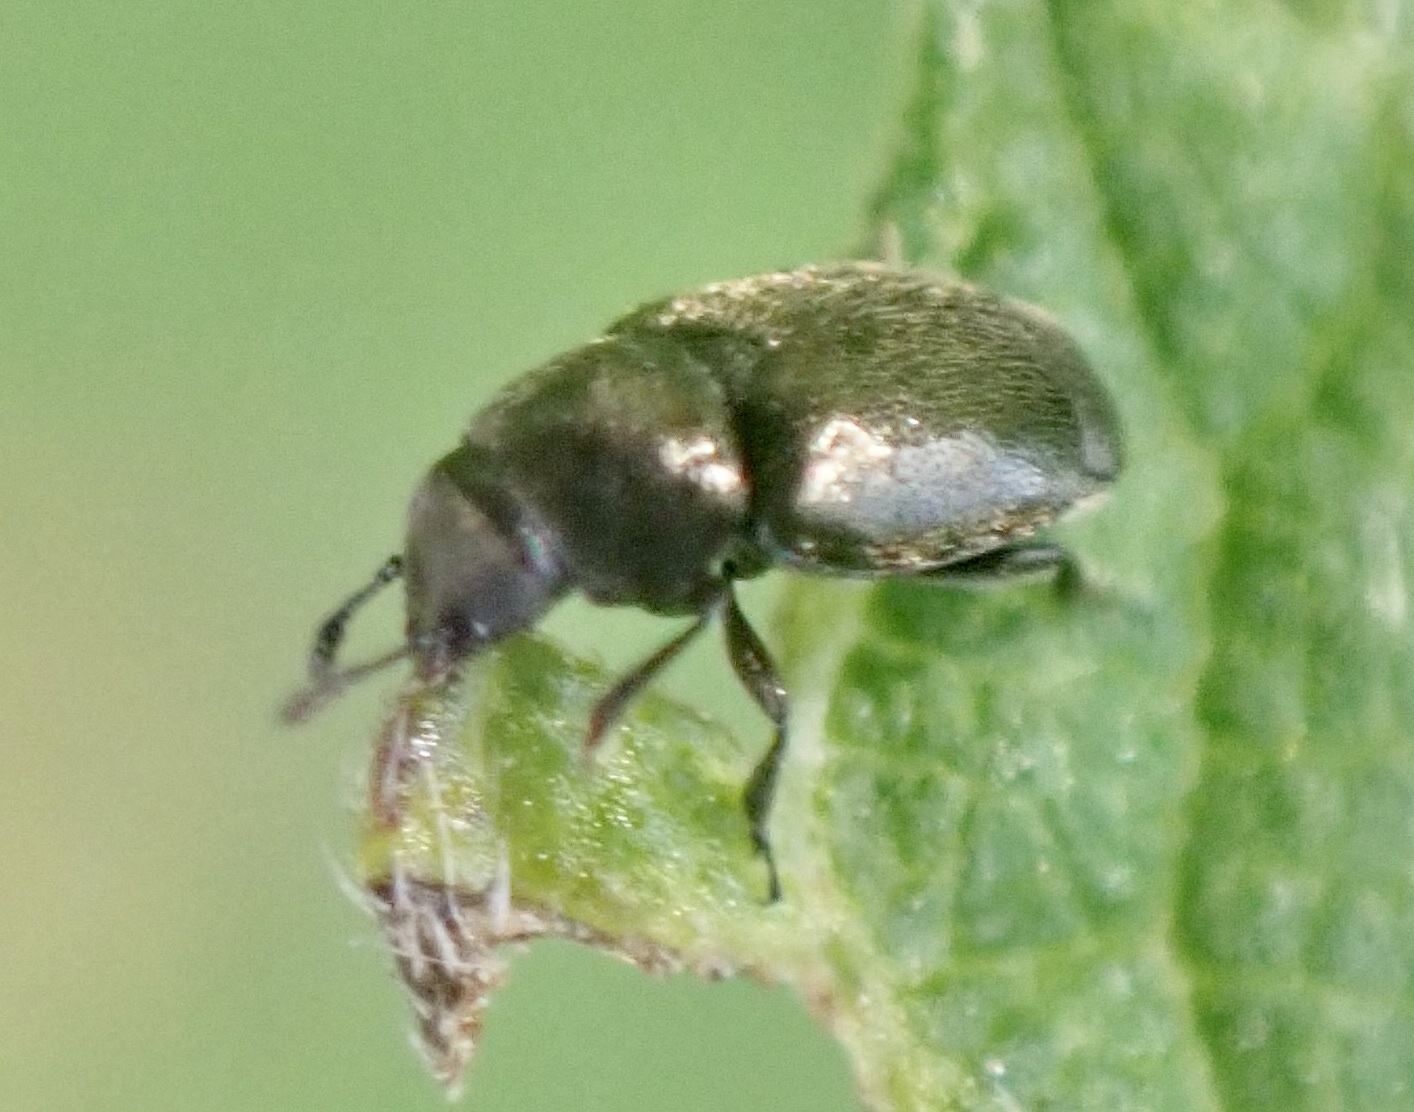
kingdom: Animalia
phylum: Arthropoda
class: Insecta
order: Coleoptera
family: Kateretidae
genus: Brachypterus
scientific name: Brachypterus glaber
